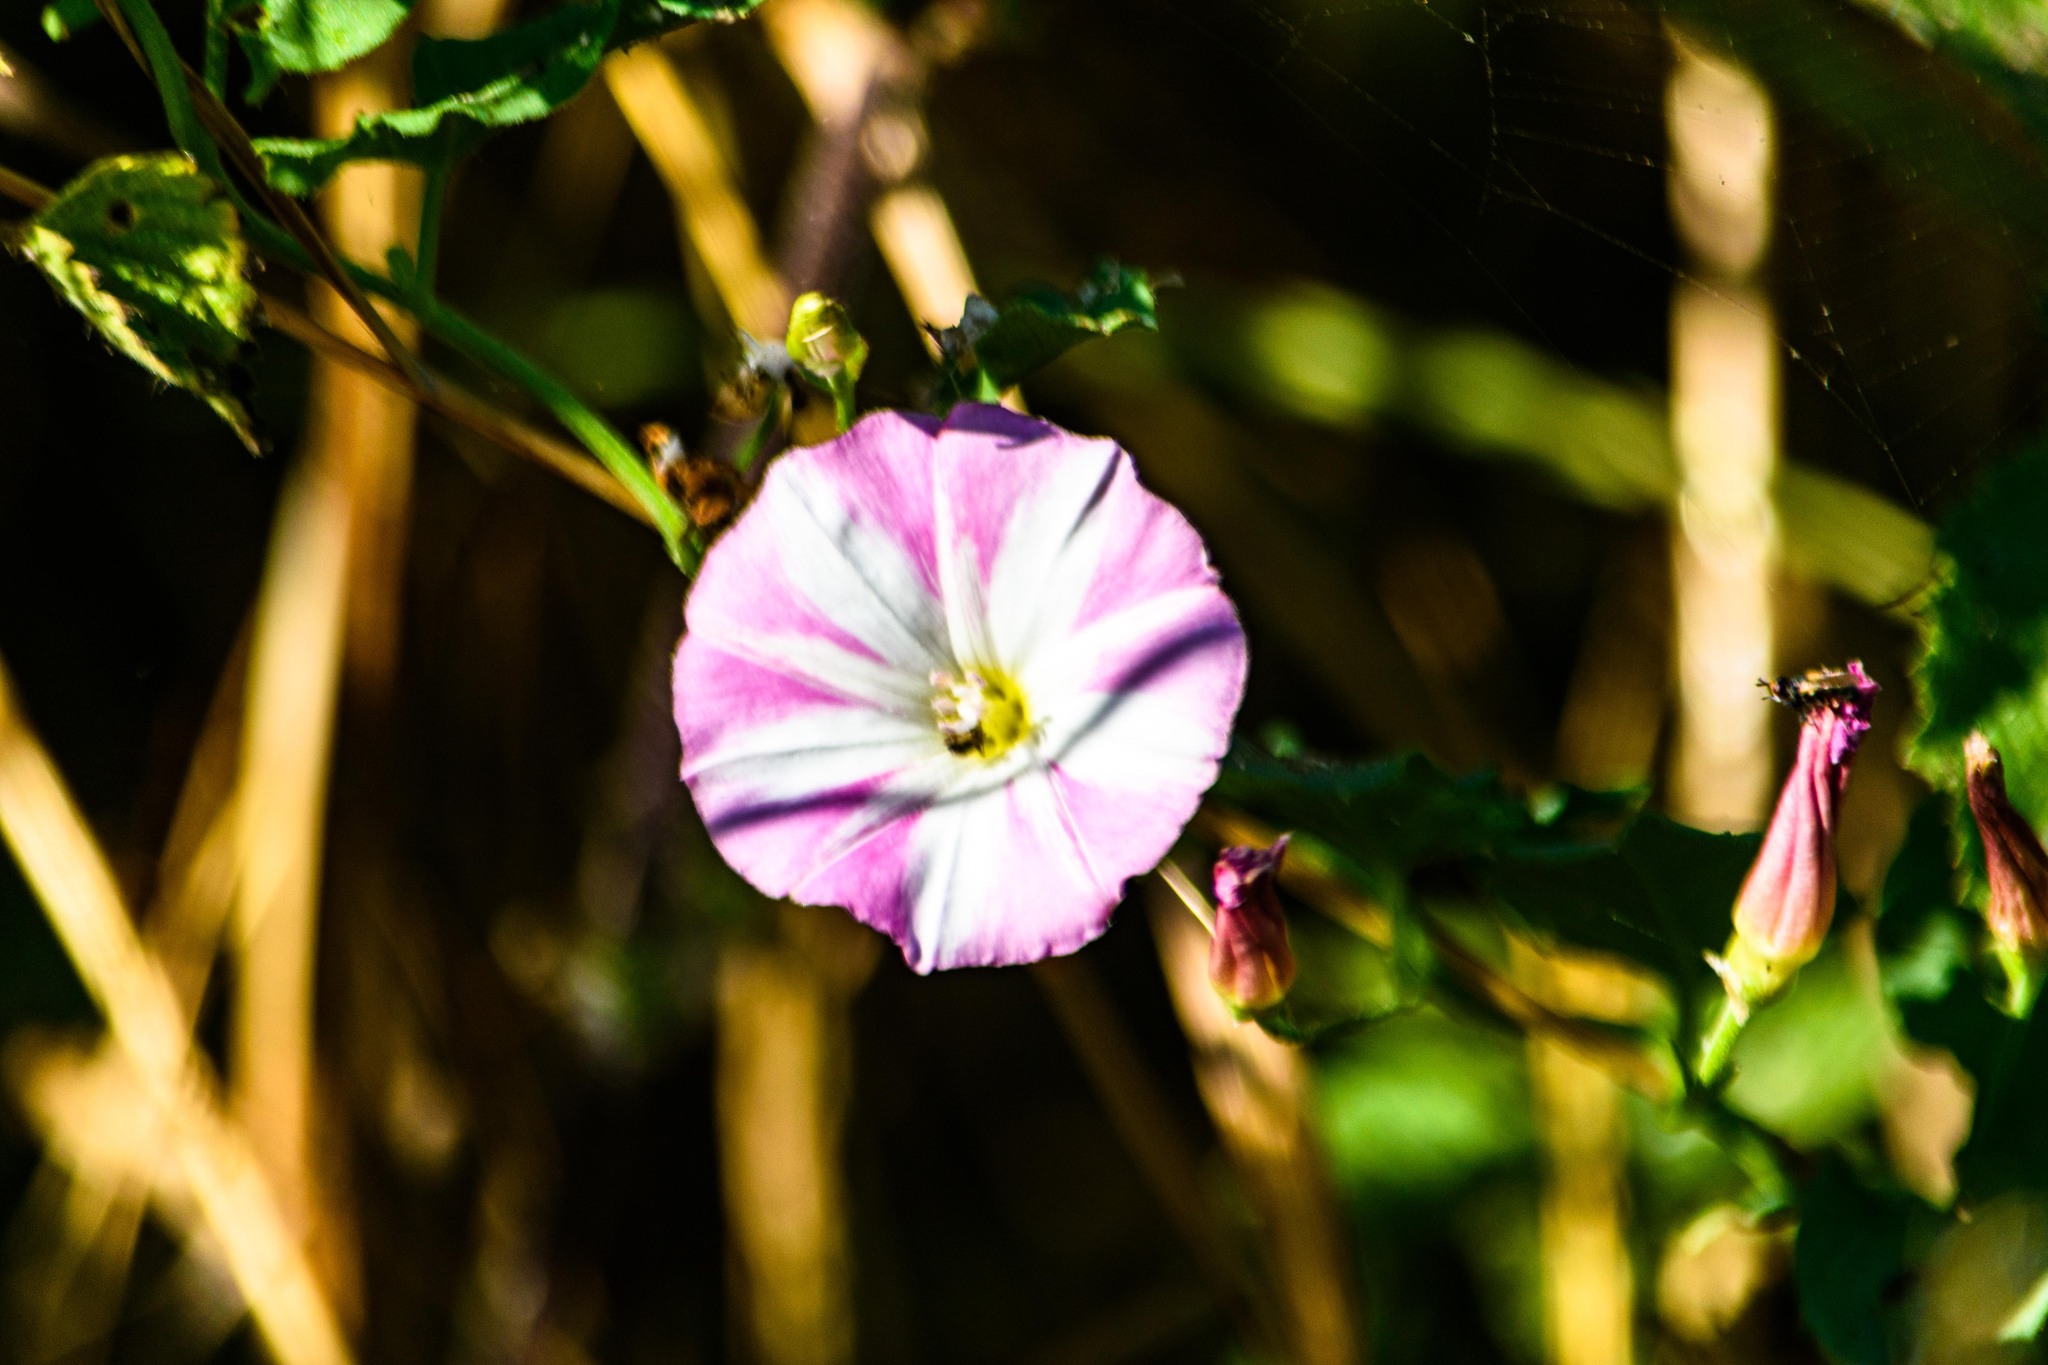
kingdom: Plantae
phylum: Tracheophyta
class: Magnoliopsida
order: Solanales
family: Convolvulaceae
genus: Convolvulus
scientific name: Convolvulus arvensis
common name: Field bindweed
